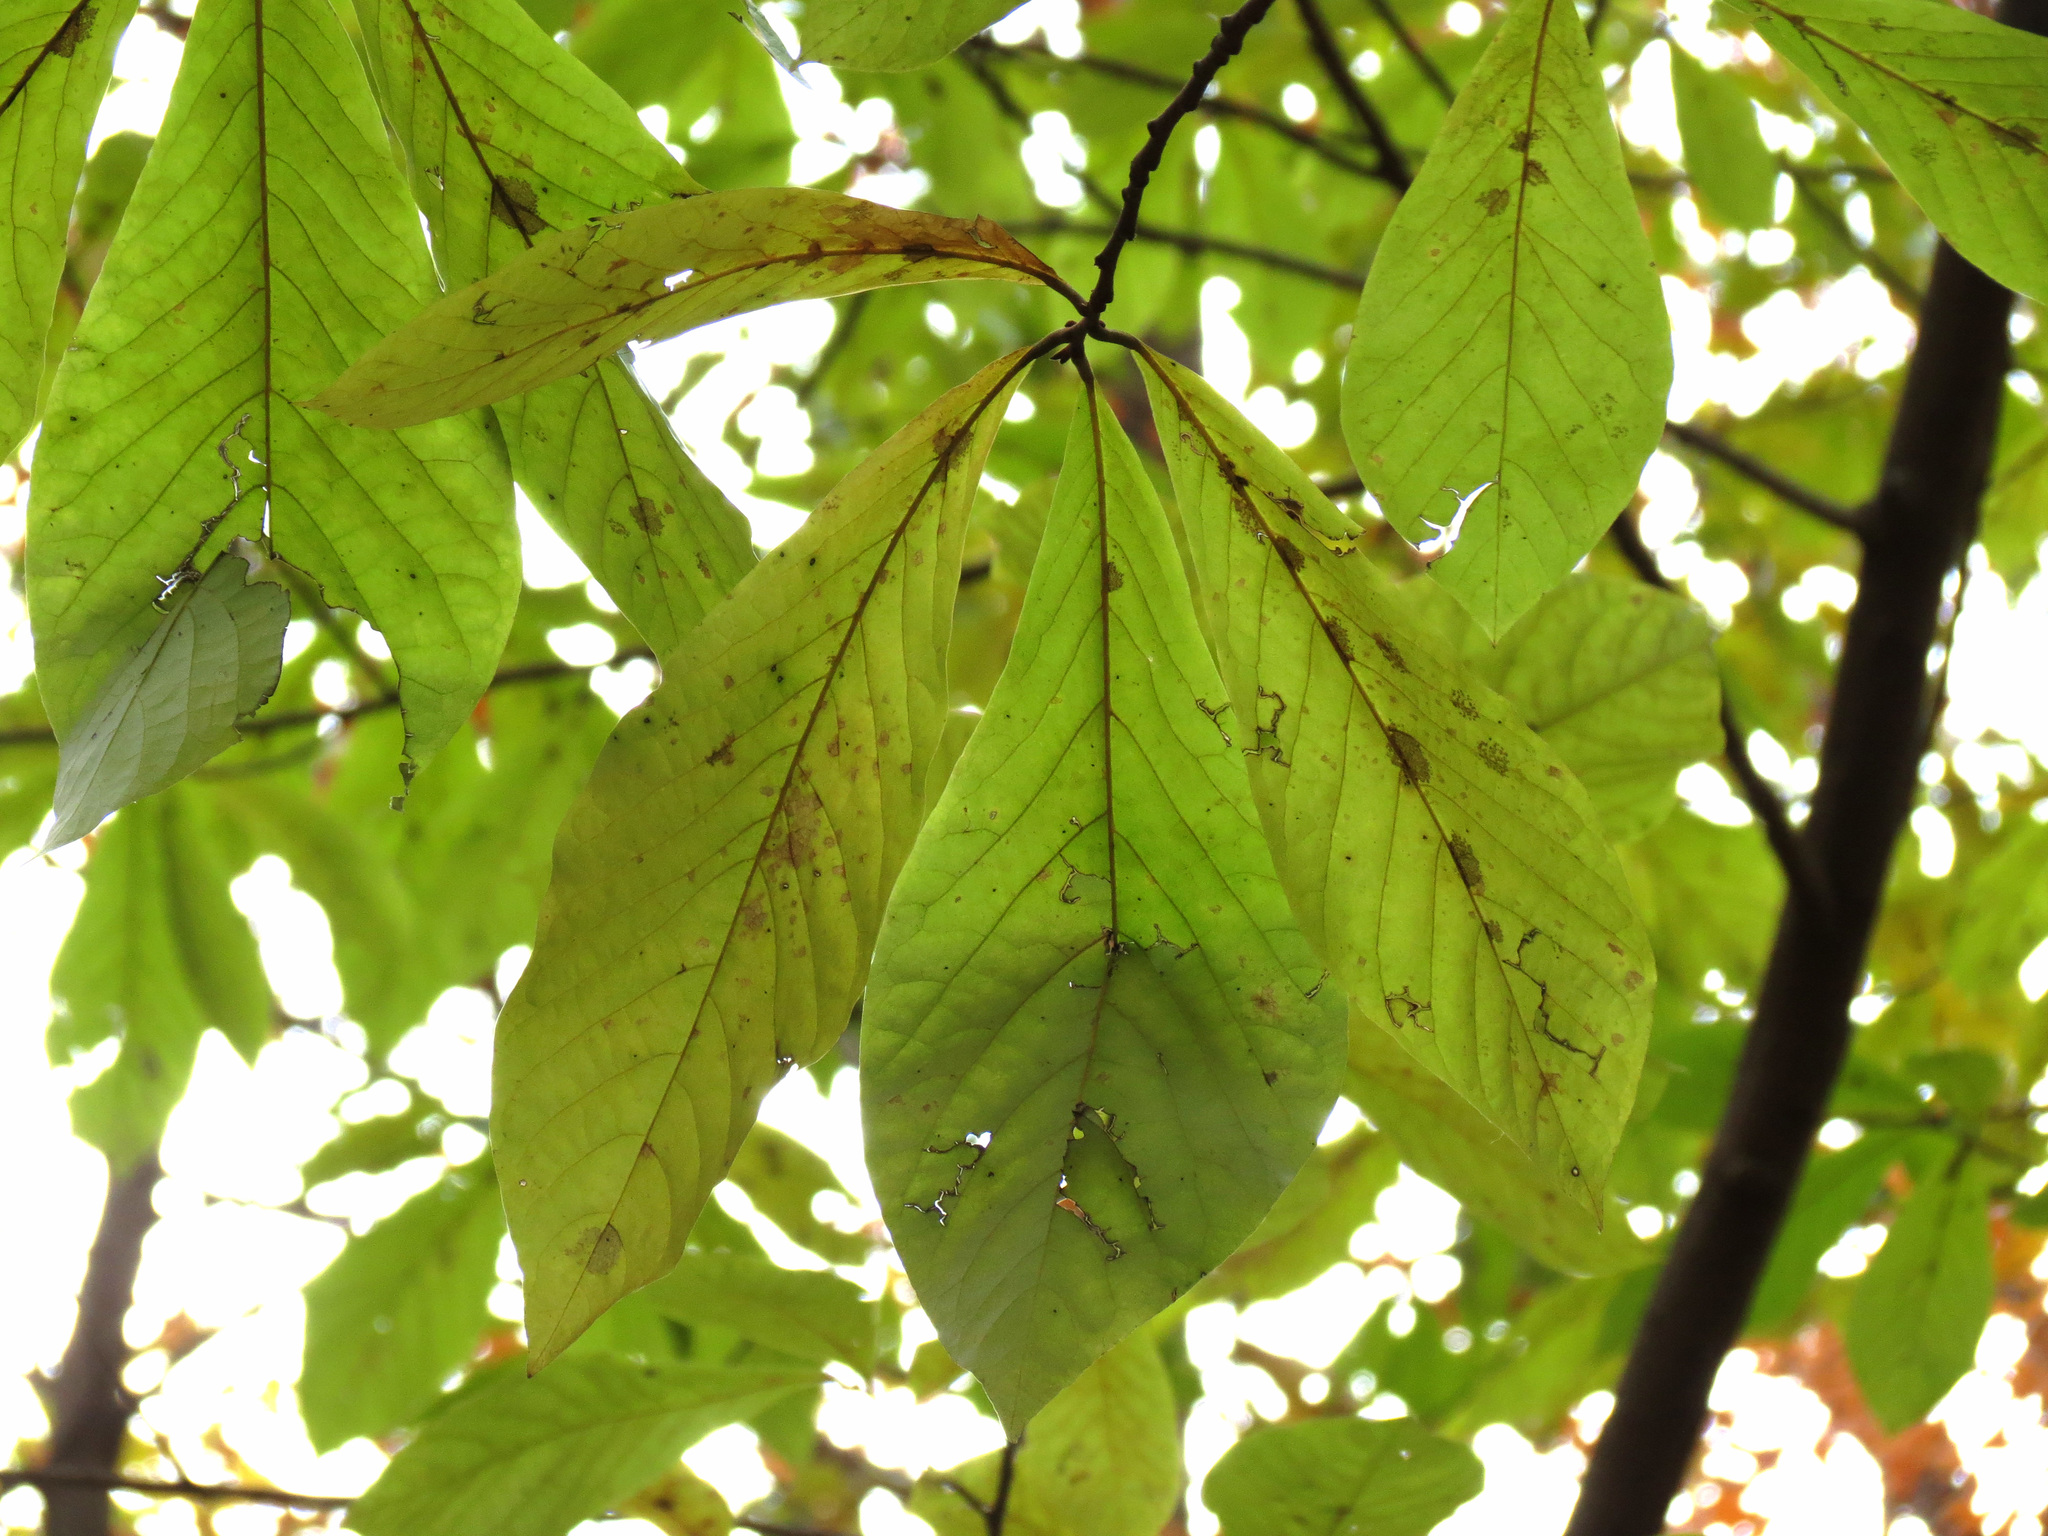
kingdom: Plantae
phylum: Tracheophyta
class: Magnoliopsida
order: Magnoliales
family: Annonaceae
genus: Asimina
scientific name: Asimina triloba
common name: Dog-banana
